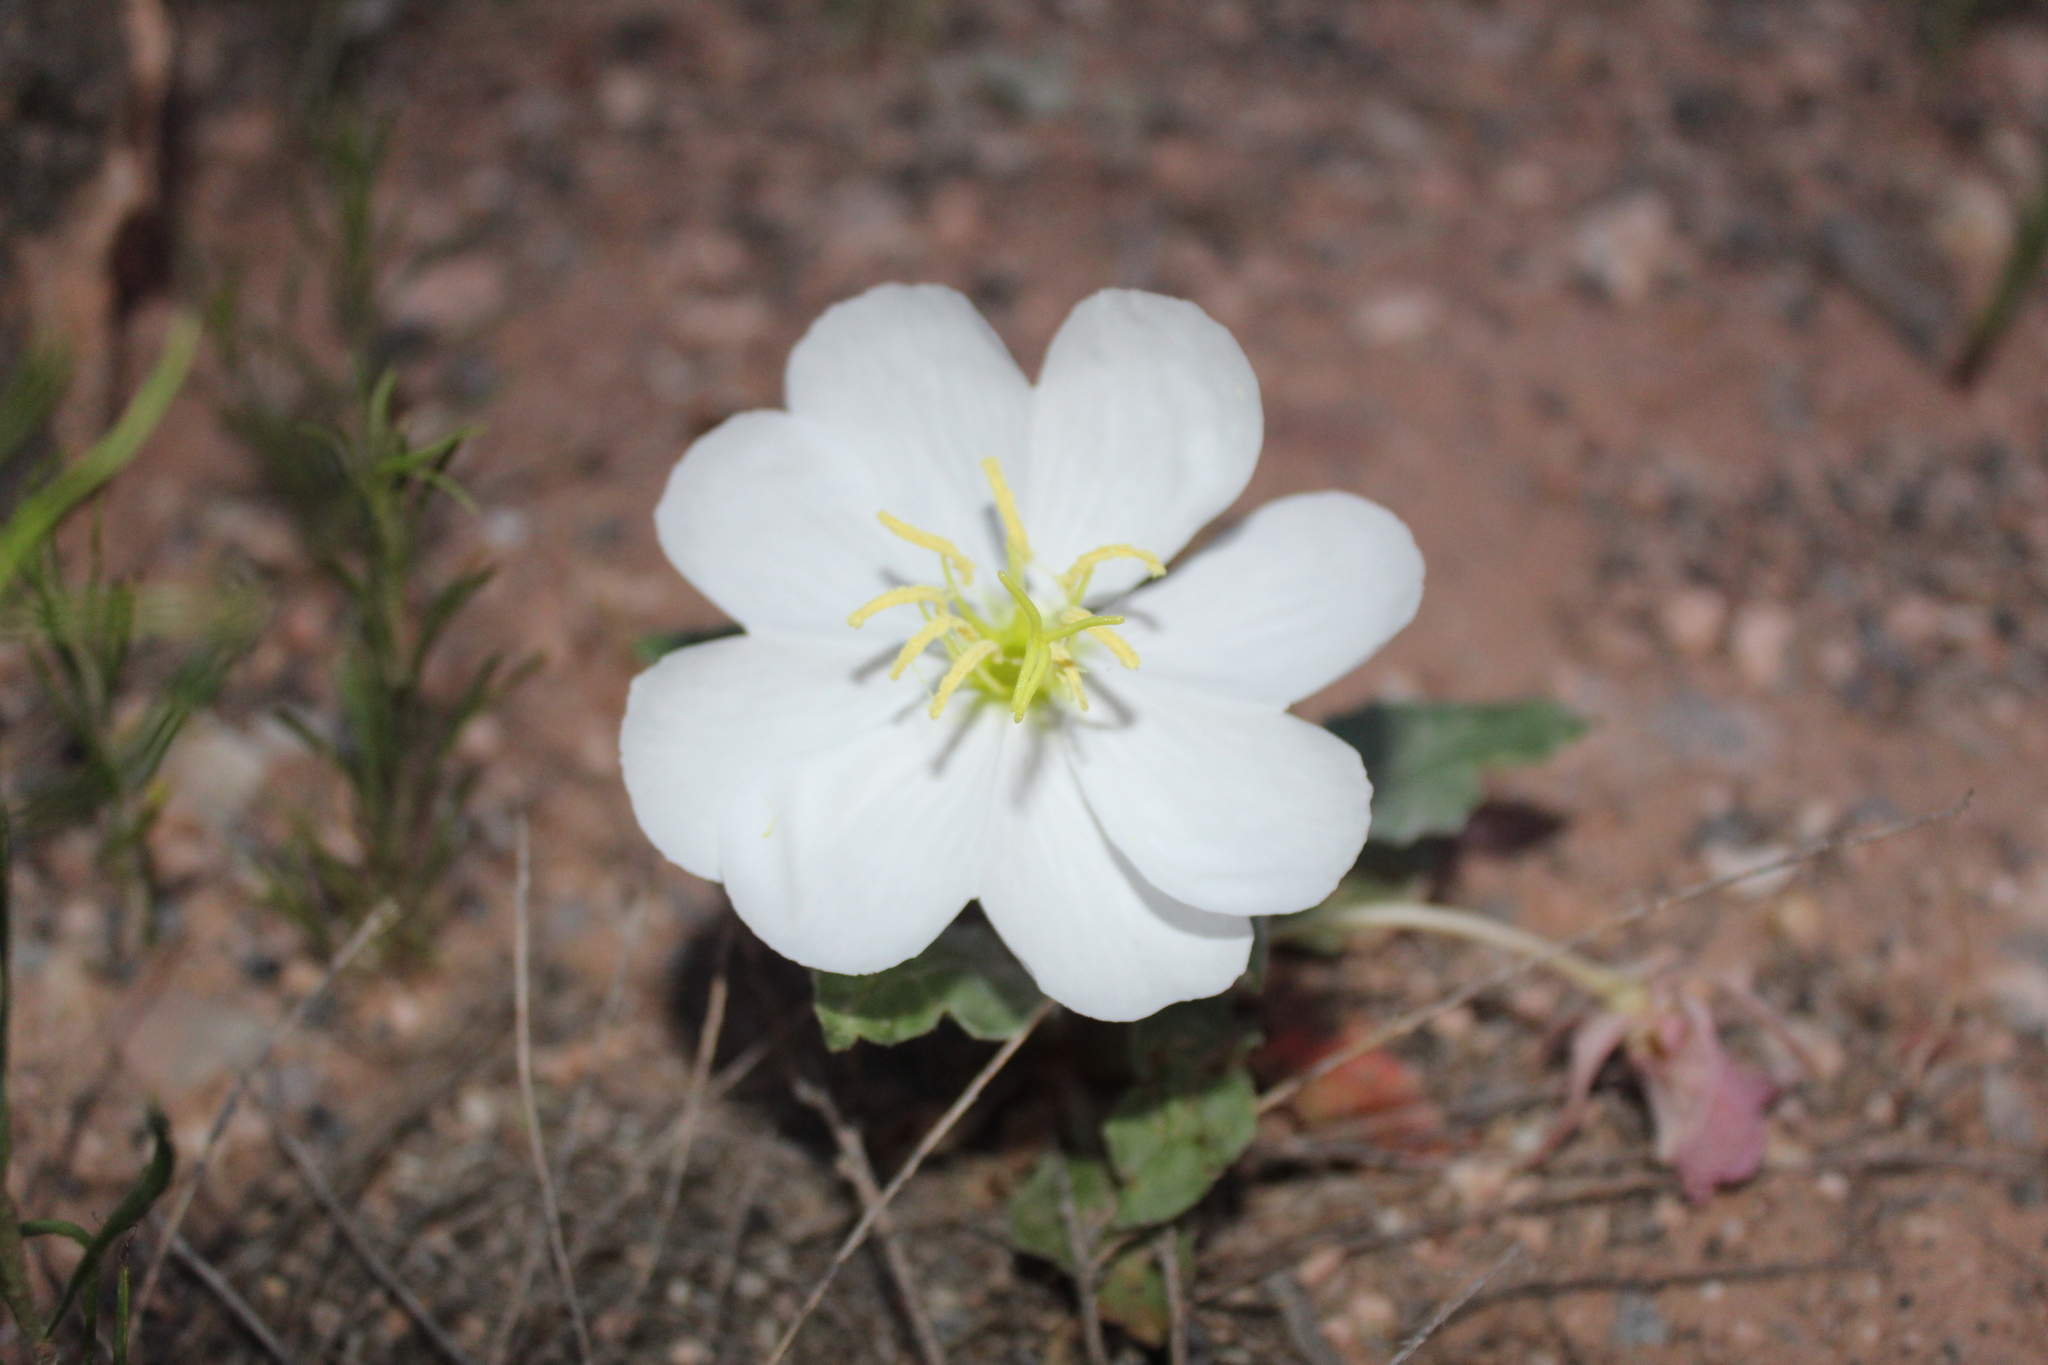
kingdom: Plantae
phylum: Tracheophyta
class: Magnoliopsida
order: Myrtales
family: Onagraceae
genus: Oenothera
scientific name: Oenothera cespitosa
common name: Tufted evening-primrose
